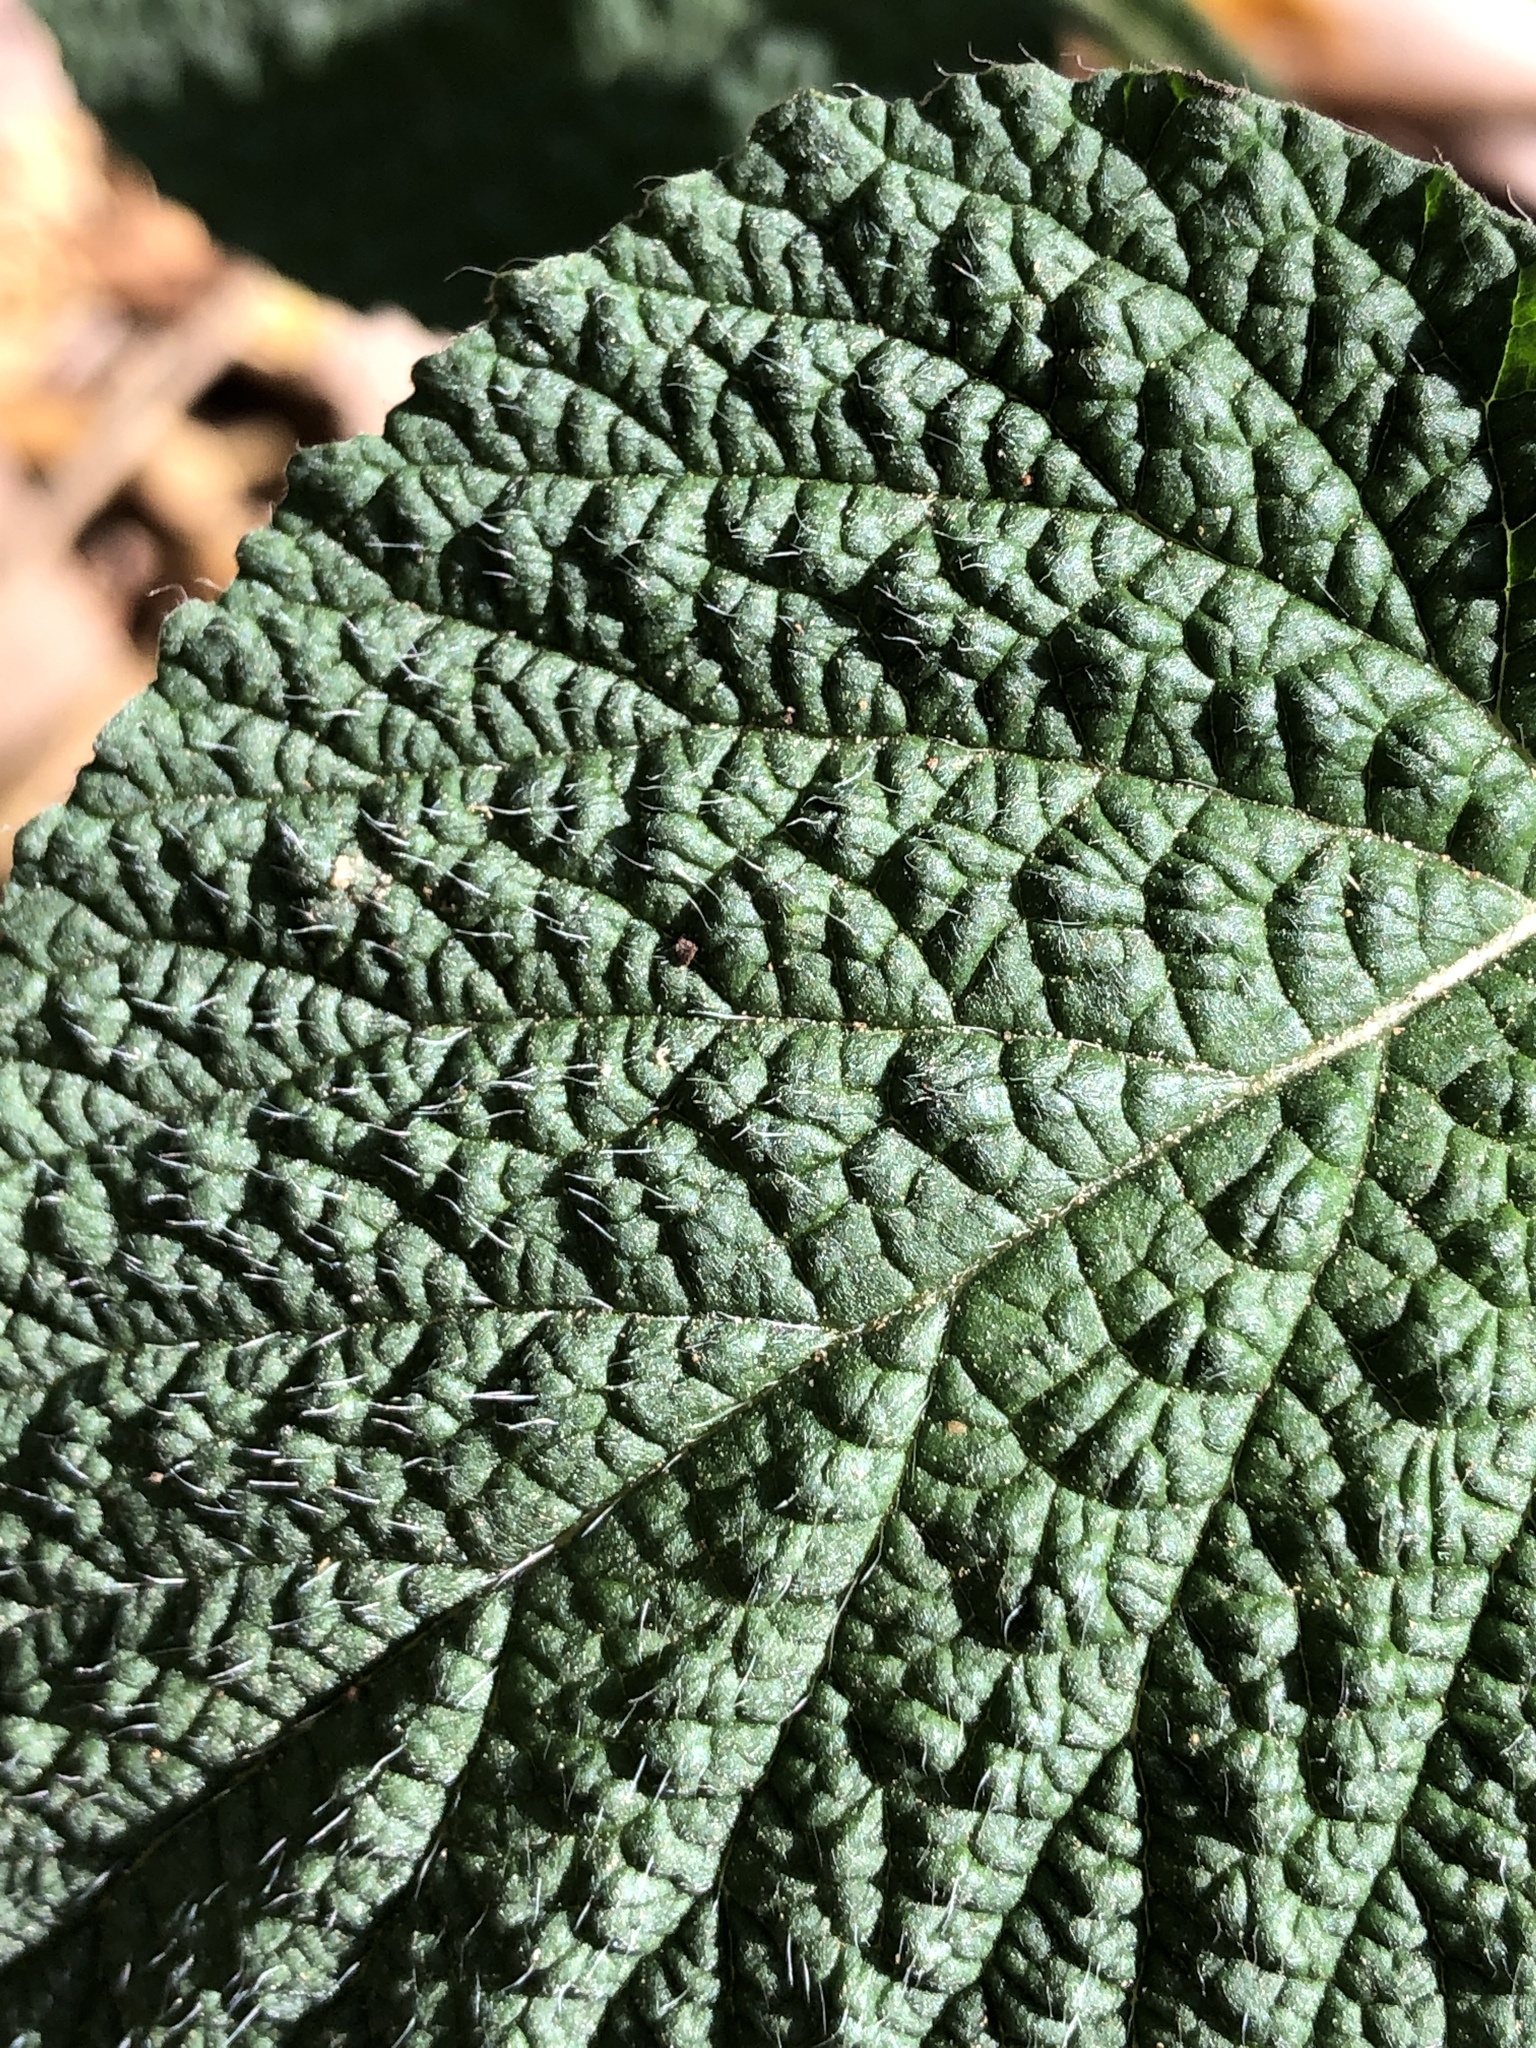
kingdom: Plantae
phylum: Tracheophyta
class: Magnoliopsida
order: Boraginales
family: Heliotropiaceae
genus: Heliotropium
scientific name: Heliotropium indicum
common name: Indian heliotrope
